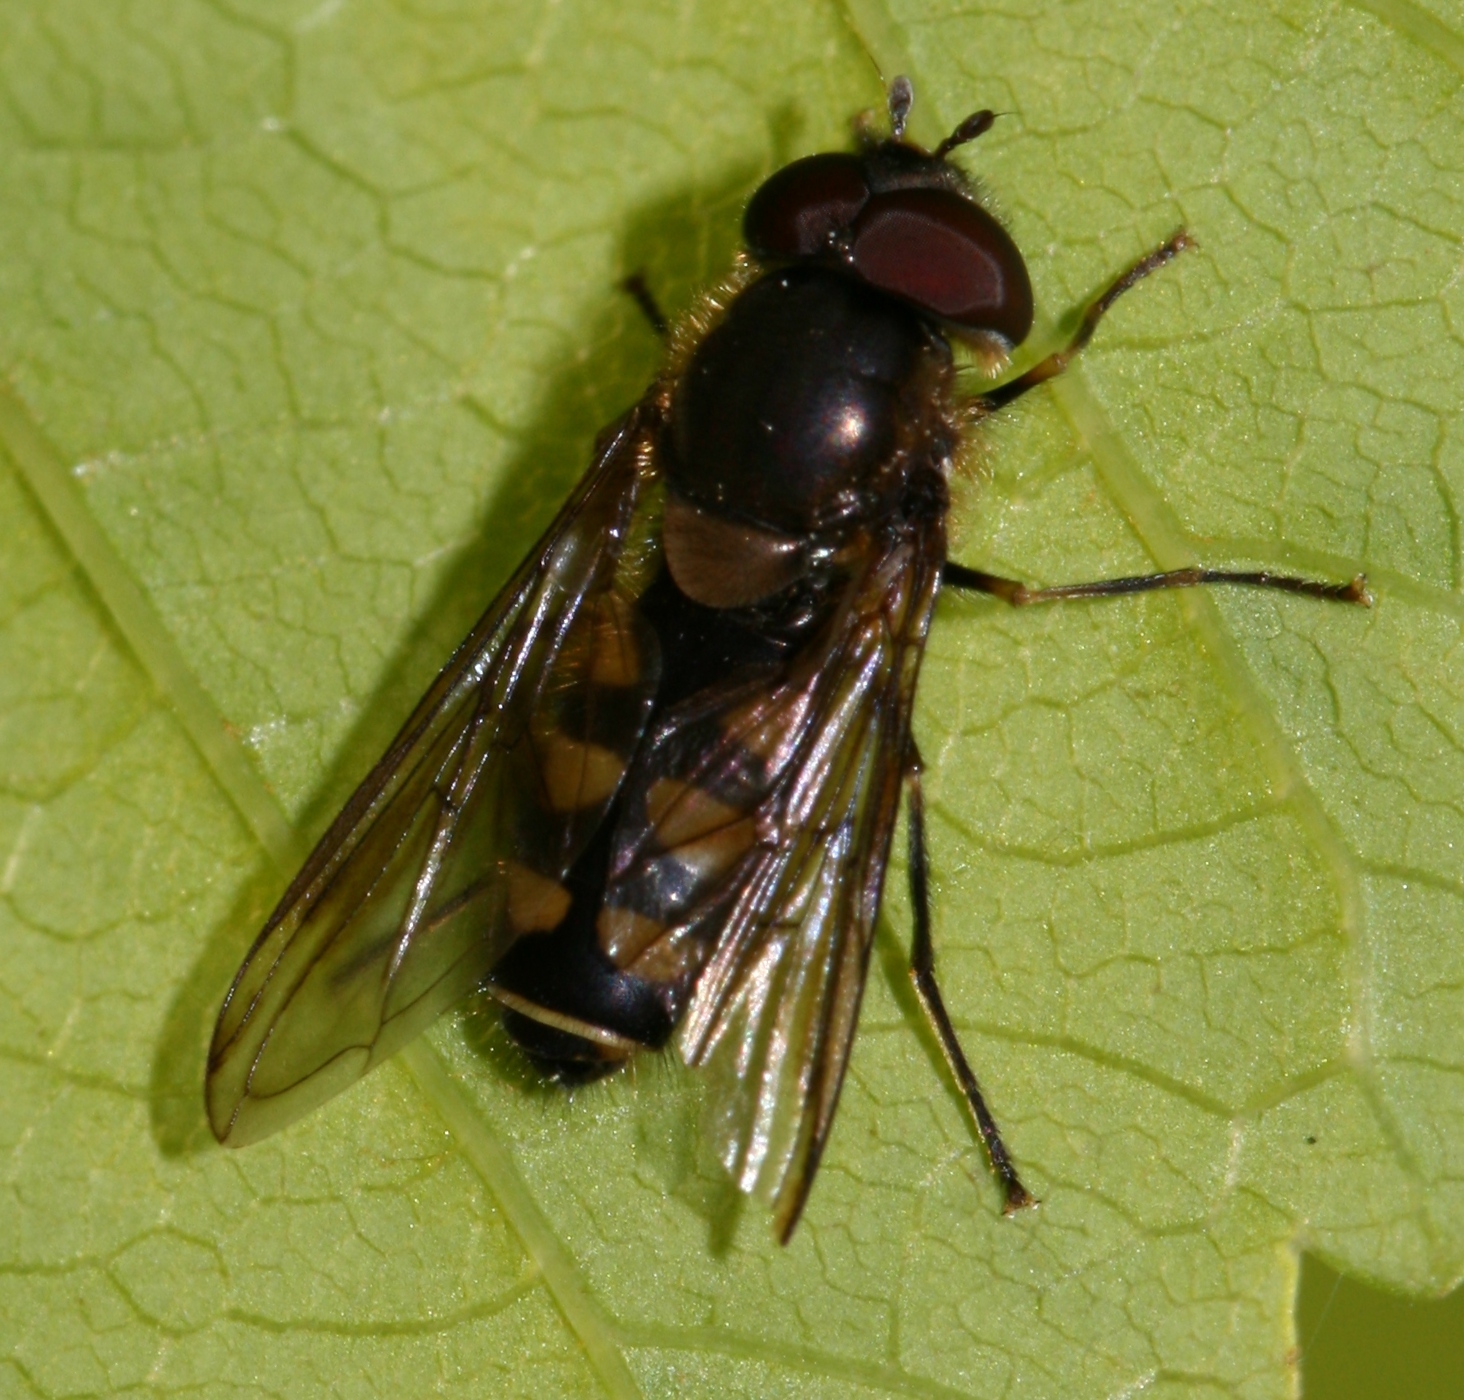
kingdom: Animalia
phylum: Arthropoda
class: Insecta
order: Diptera
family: Syrphidae
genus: Parasyrphus
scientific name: Parasyrphus punctulatus
